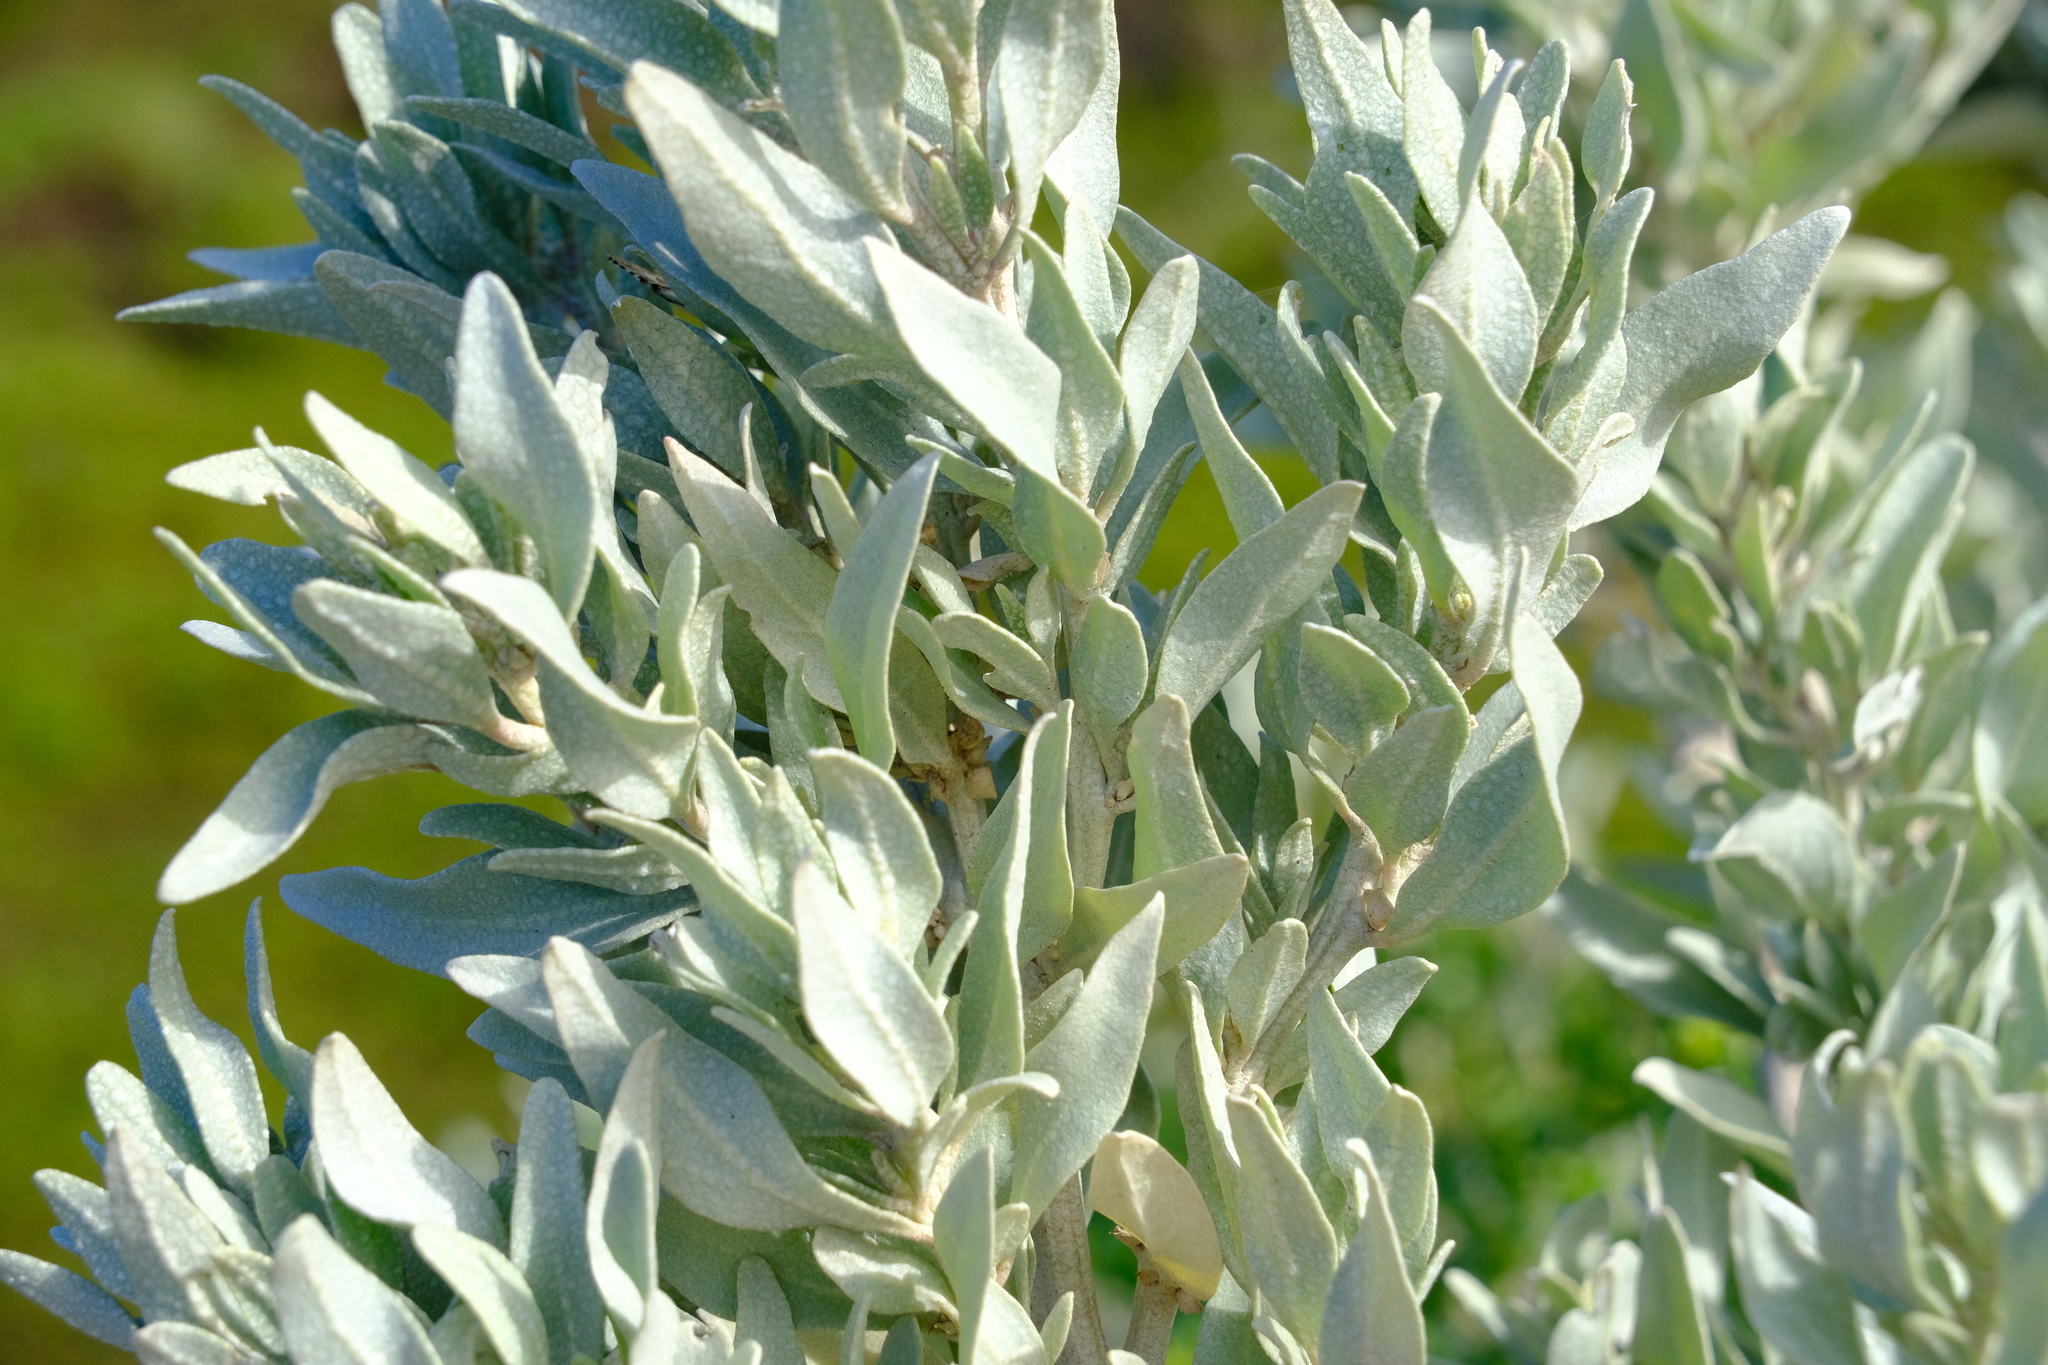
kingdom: Plantae
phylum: Tracheophyta
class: Magnoliopsida
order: Caryophyllales
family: Amaranthaceae
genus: Atriplex
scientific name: Atriplex cinerea
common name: Grey saltbush
